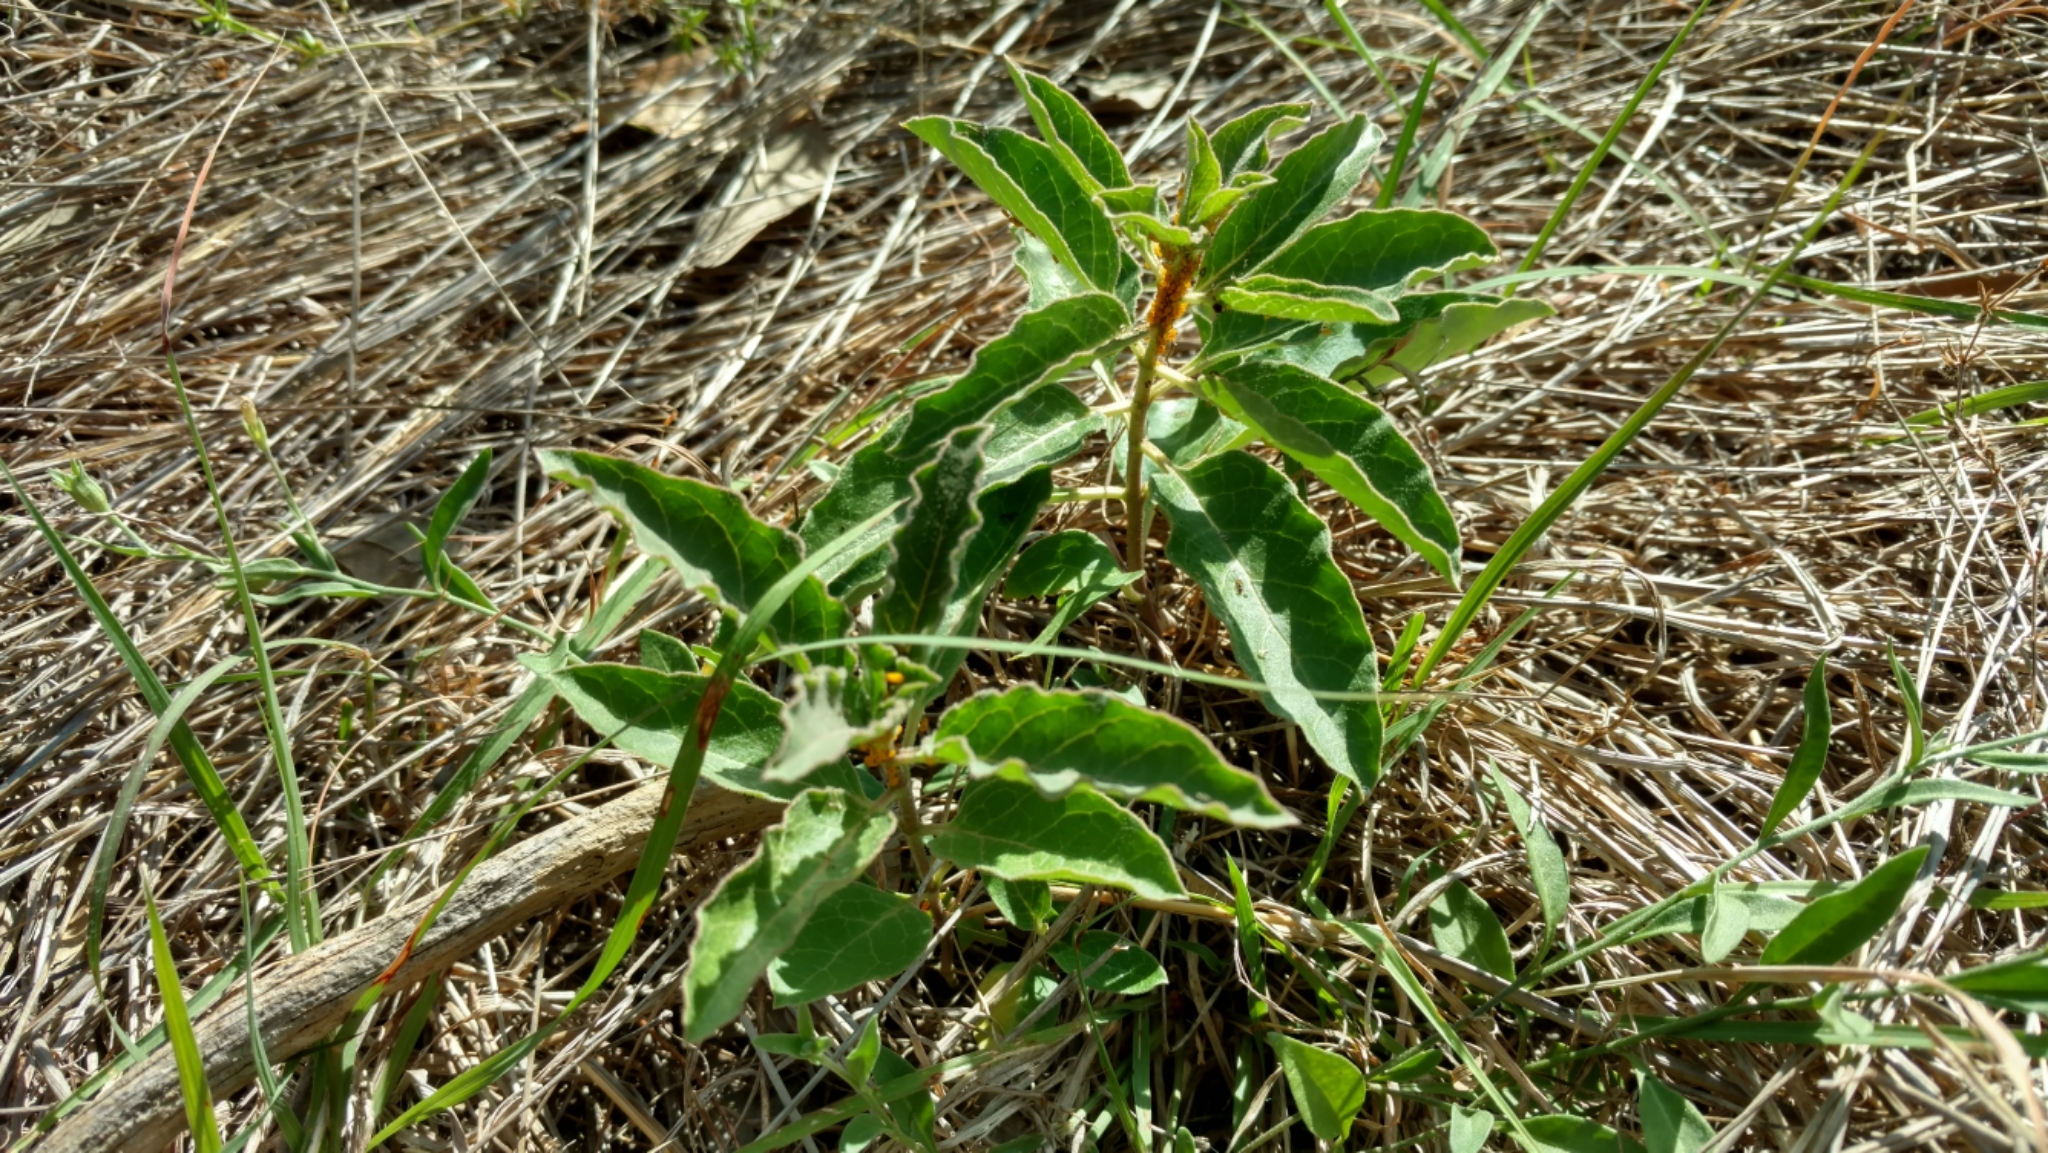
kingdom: Plantae
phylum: Tracheophyta
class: Magnoliopsida
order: Gentianales
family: Apocynaceae
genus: Asclepias
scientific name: Asclepias oenotheroides
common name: Zizotes milkweed
